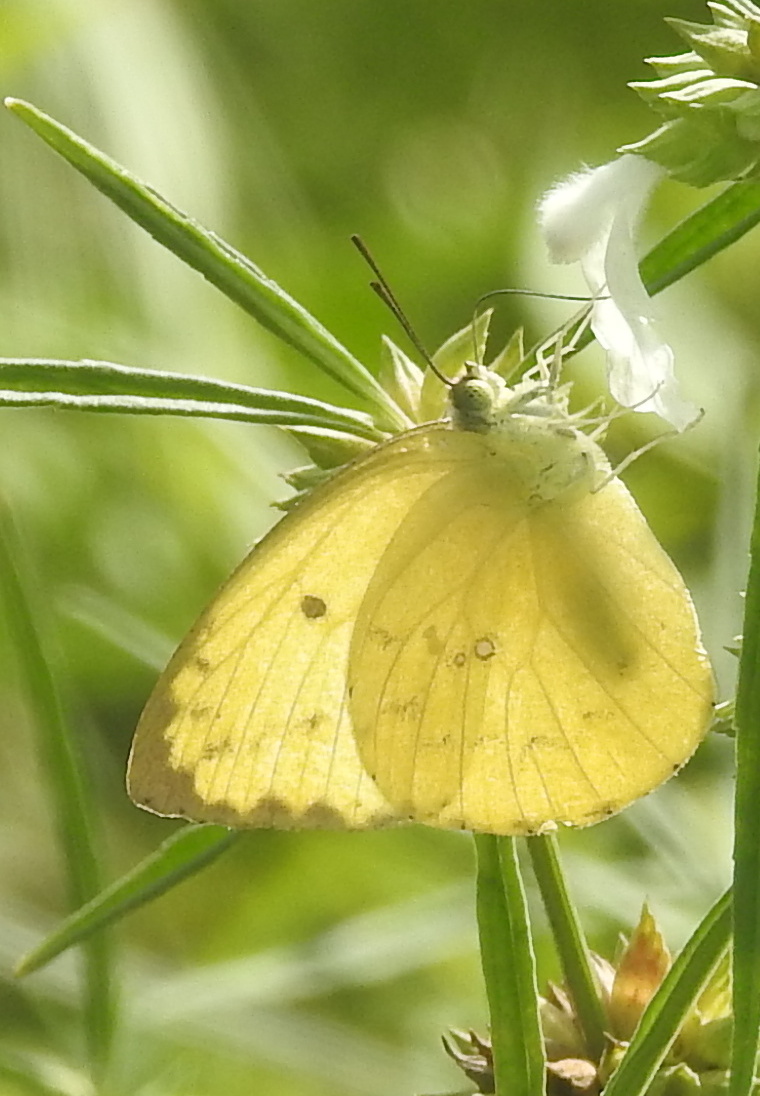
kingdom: Animalia
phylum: Arthropoda
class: Insecta
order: Lepidoptera
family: Pieridae
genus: Catopsilia
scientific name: Catopsilia pomona
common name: Common emigrant
